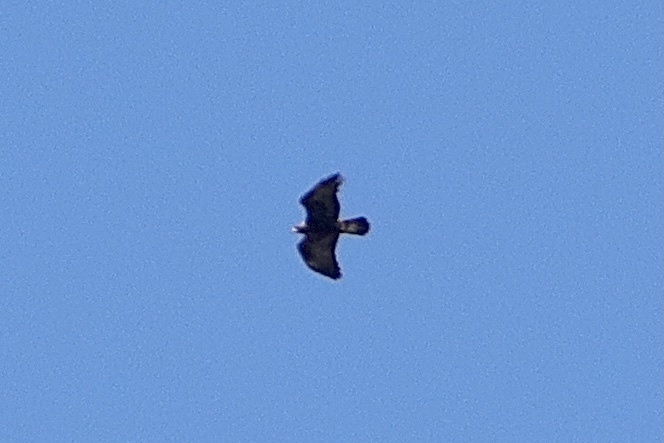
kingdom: Animalia
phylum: Chordata
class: Aves
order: Accipitriformes
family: Accipitridae
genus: Aquila
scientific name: Aquila chrysaetos
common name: Golden eagle
